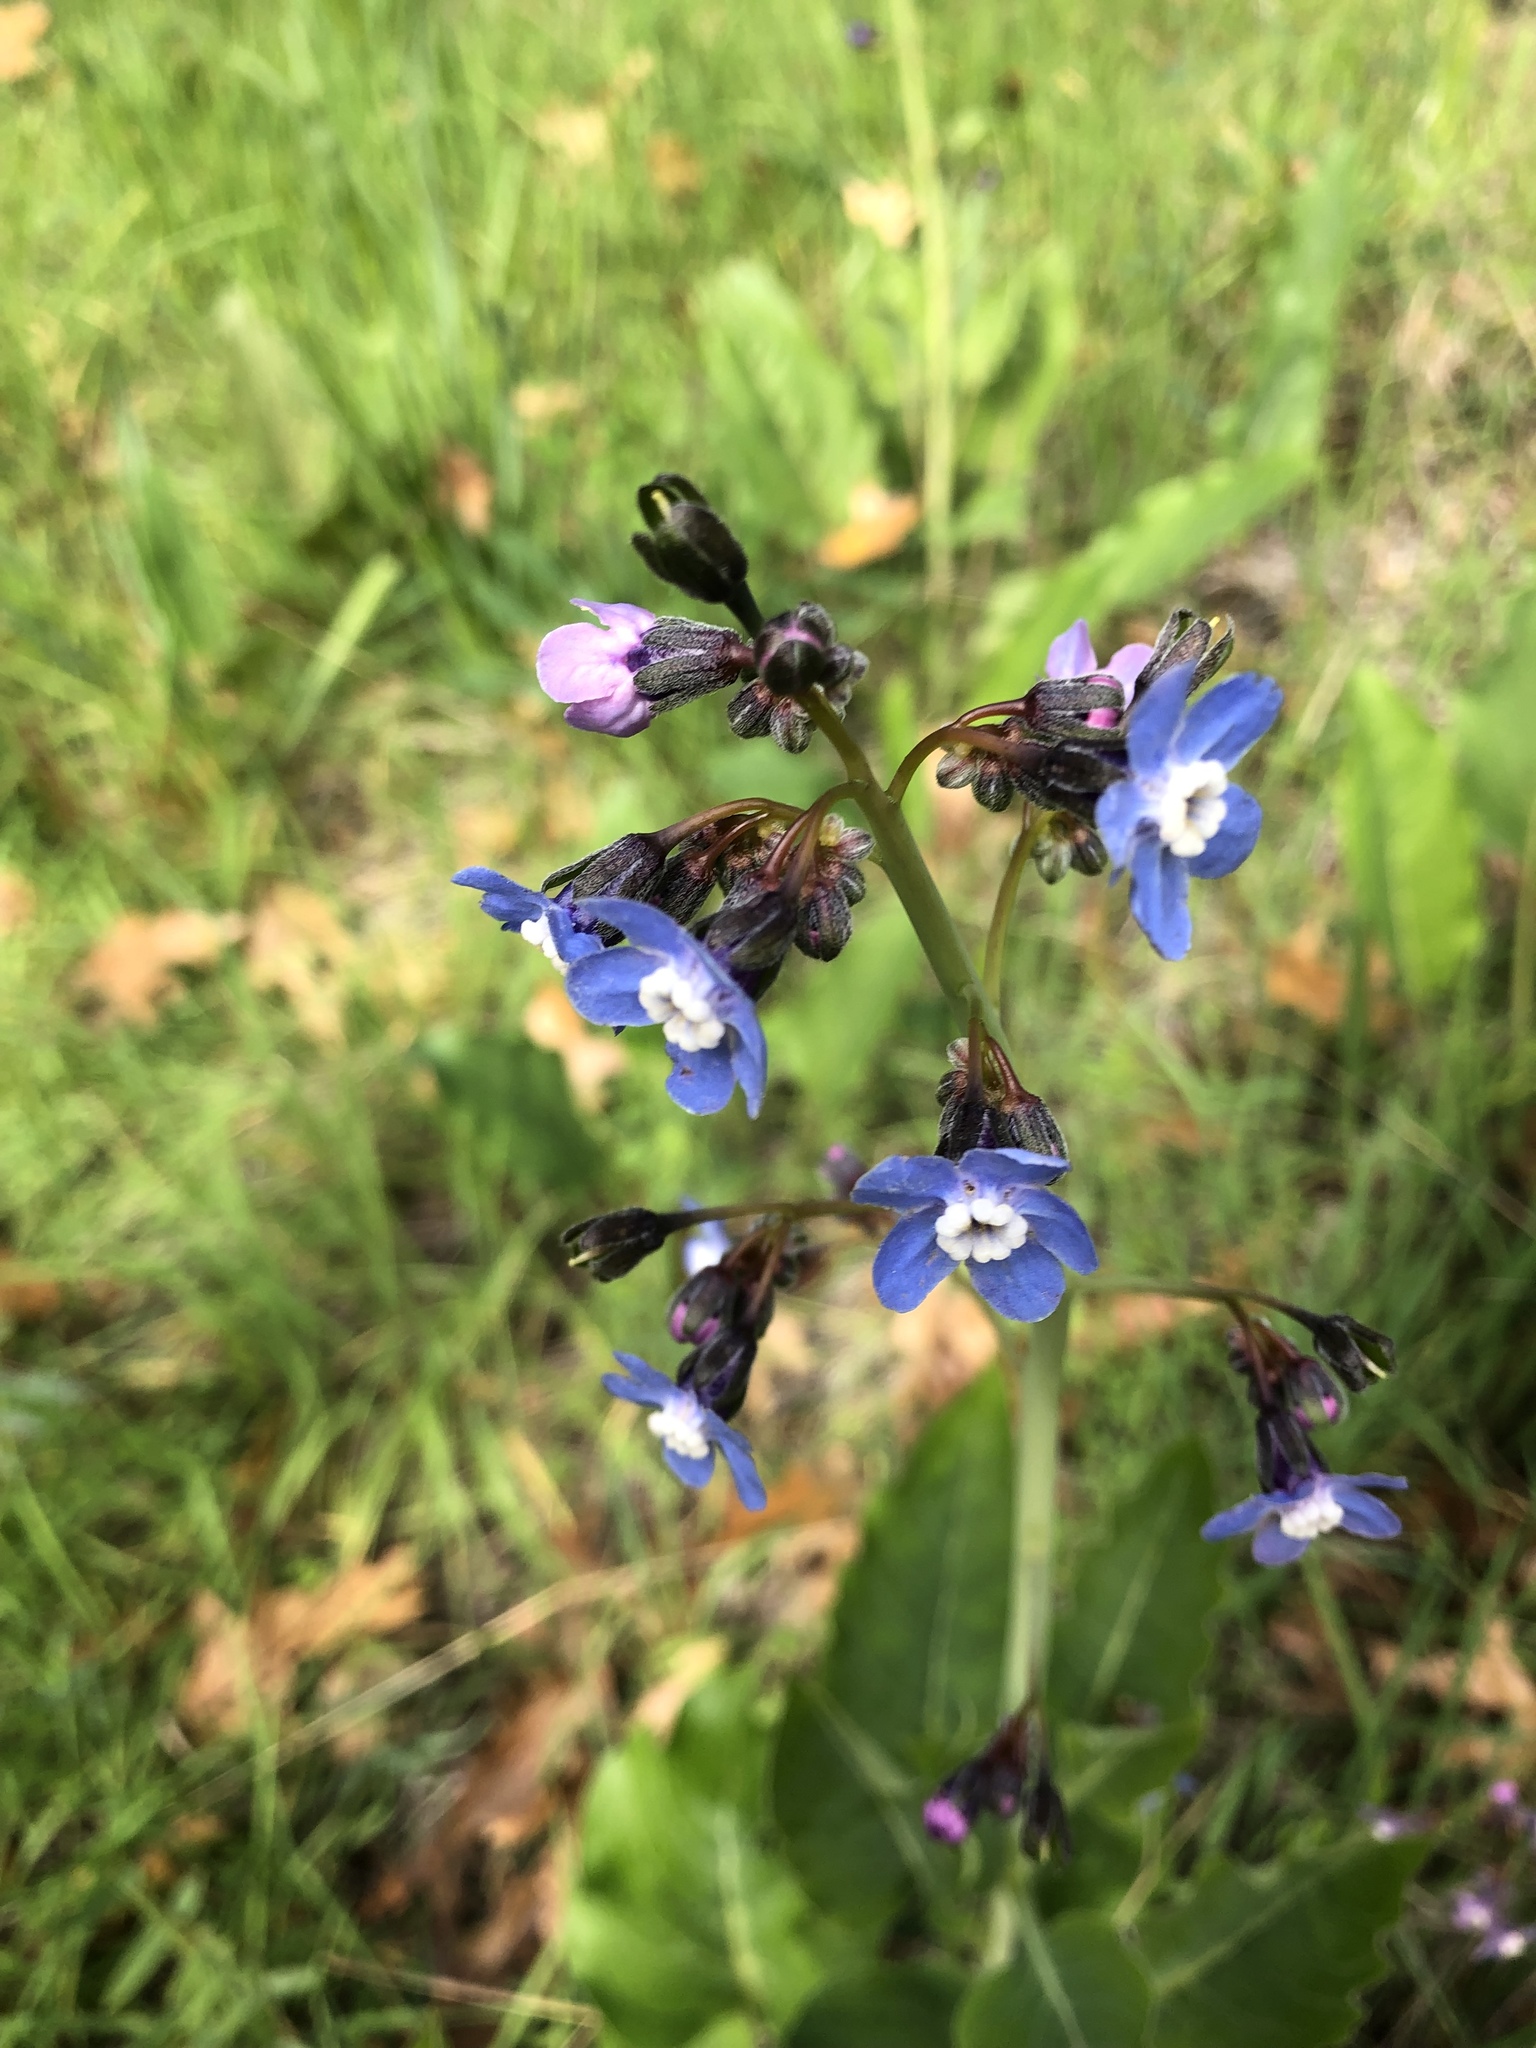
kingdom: Plantae
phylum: Tracheophyta
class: Magnoliopsida
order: Boraginales
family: Boraginaceae
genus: Adelinia
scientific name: Adelinia grande
